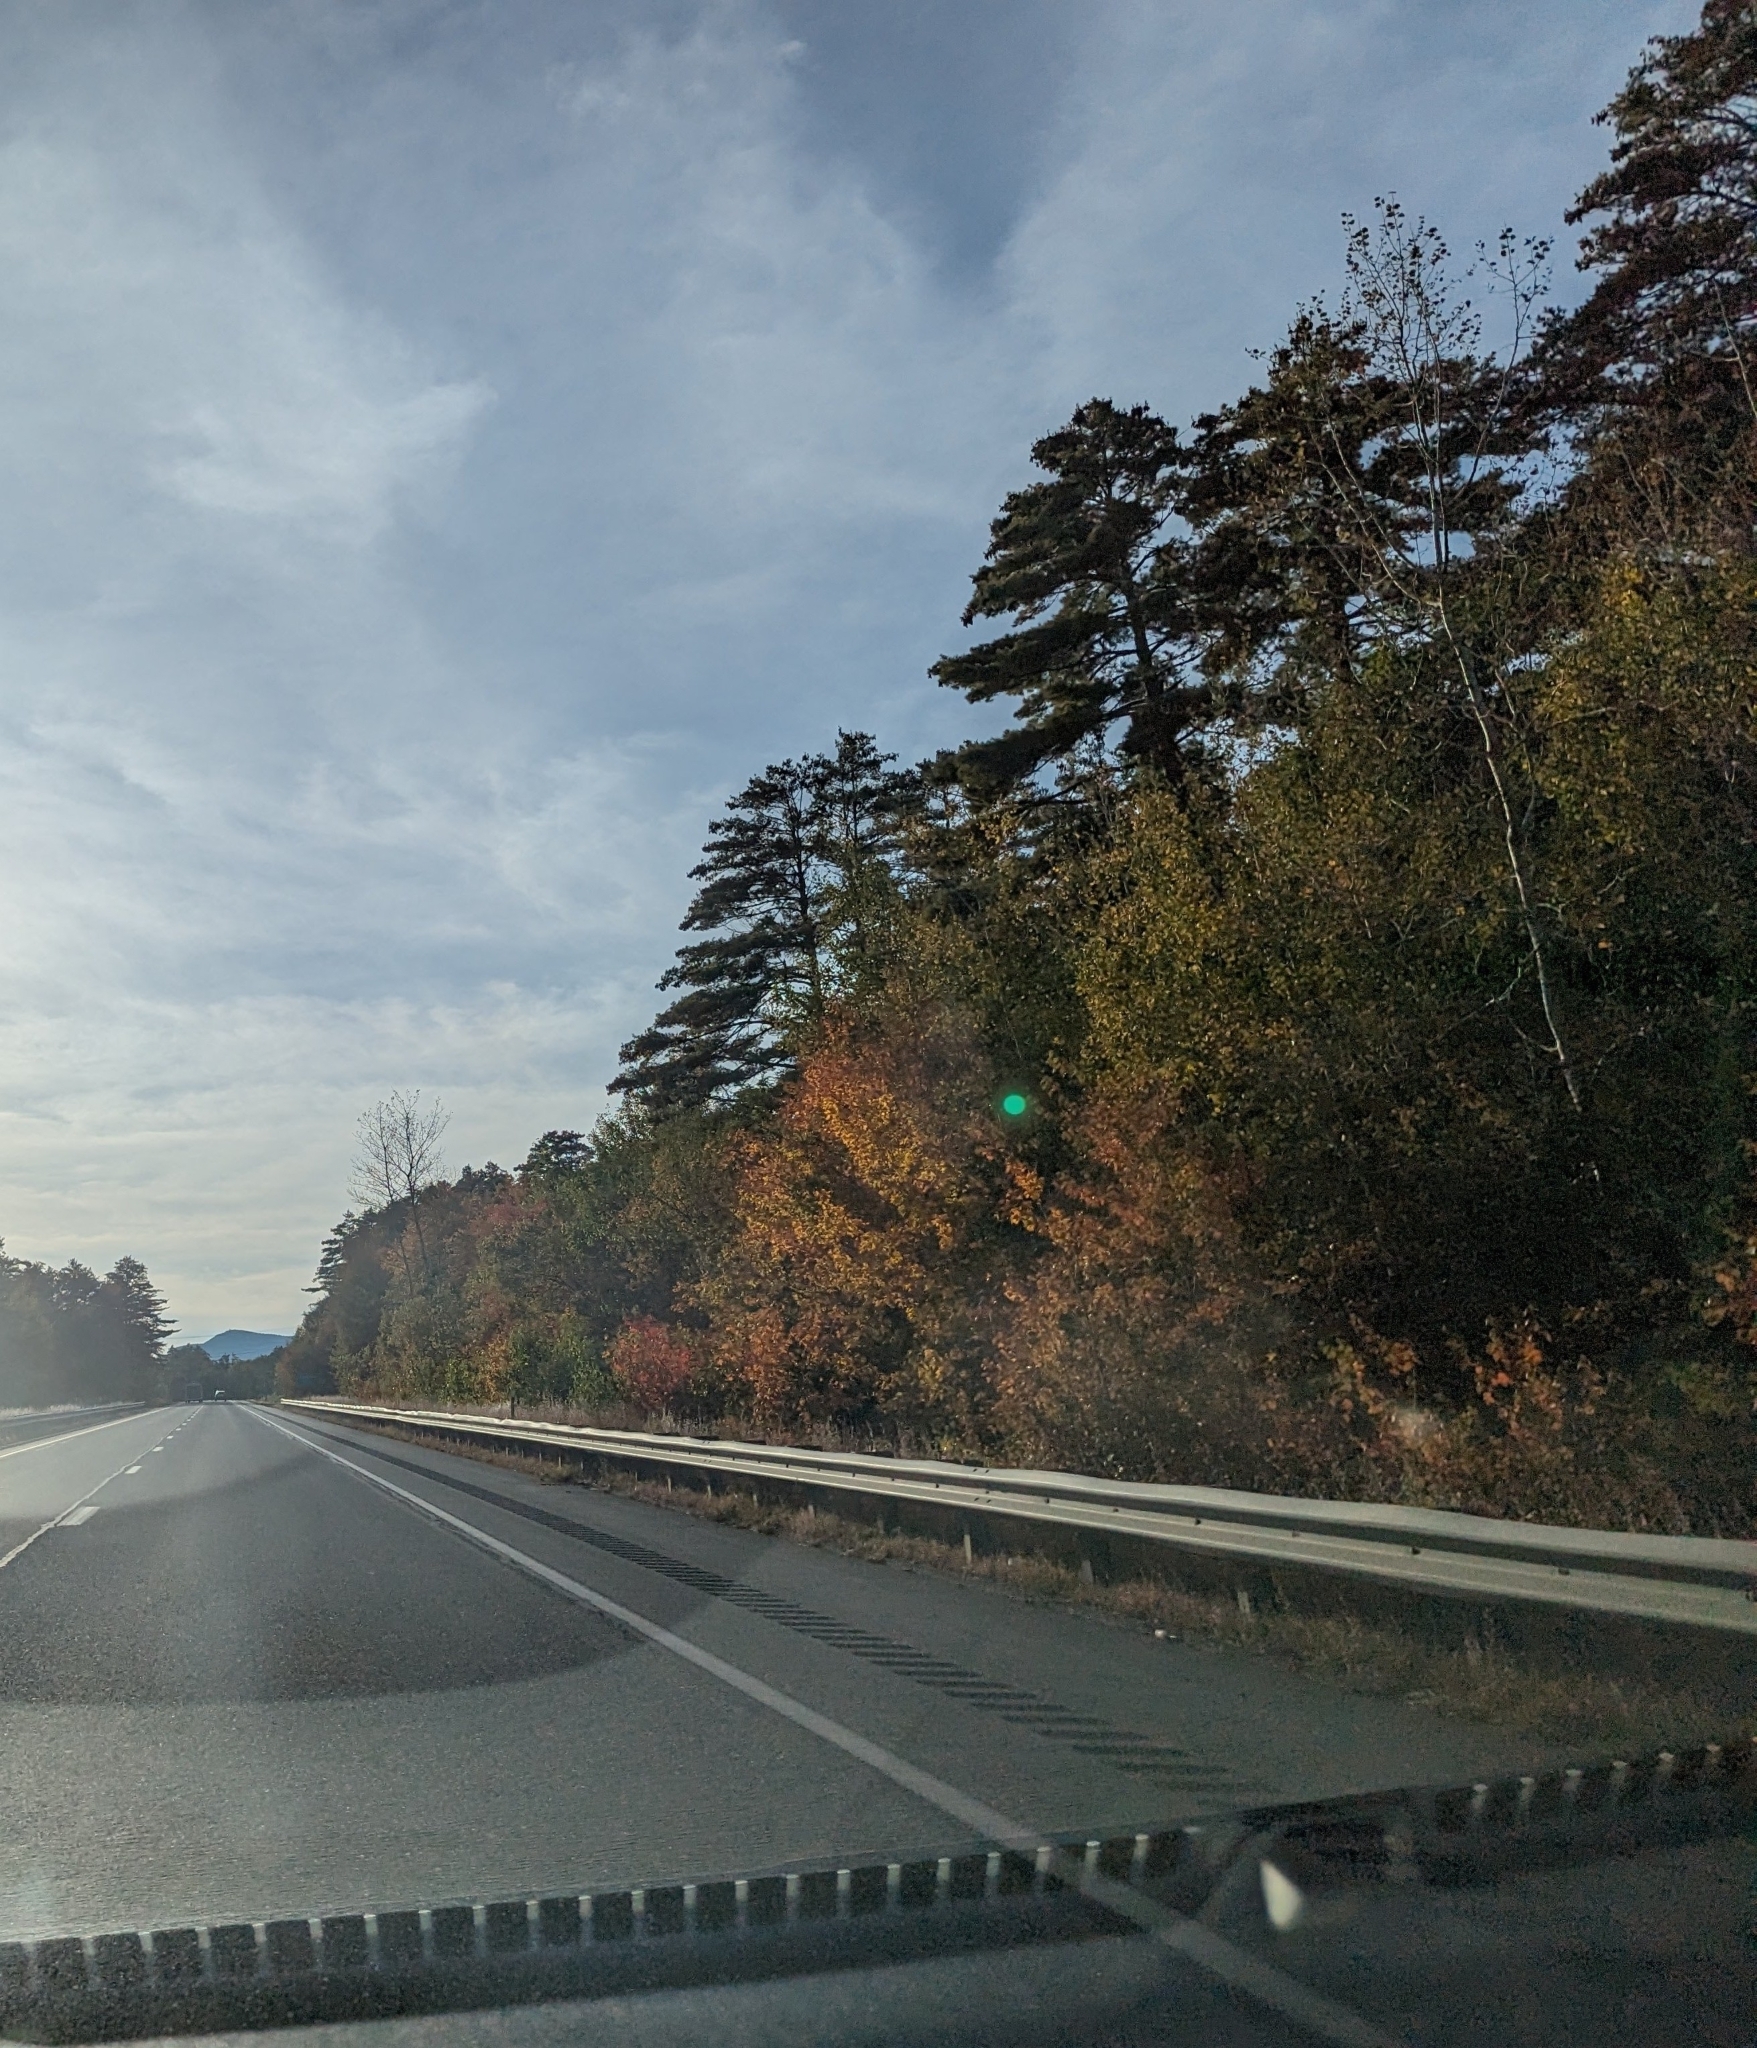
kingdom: Plantae
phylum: Tracheophyta
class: Pinopsida
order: Pinales
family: Pinaceae
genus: Pinus
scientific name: Pinus strobus
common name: Weymouth pine
